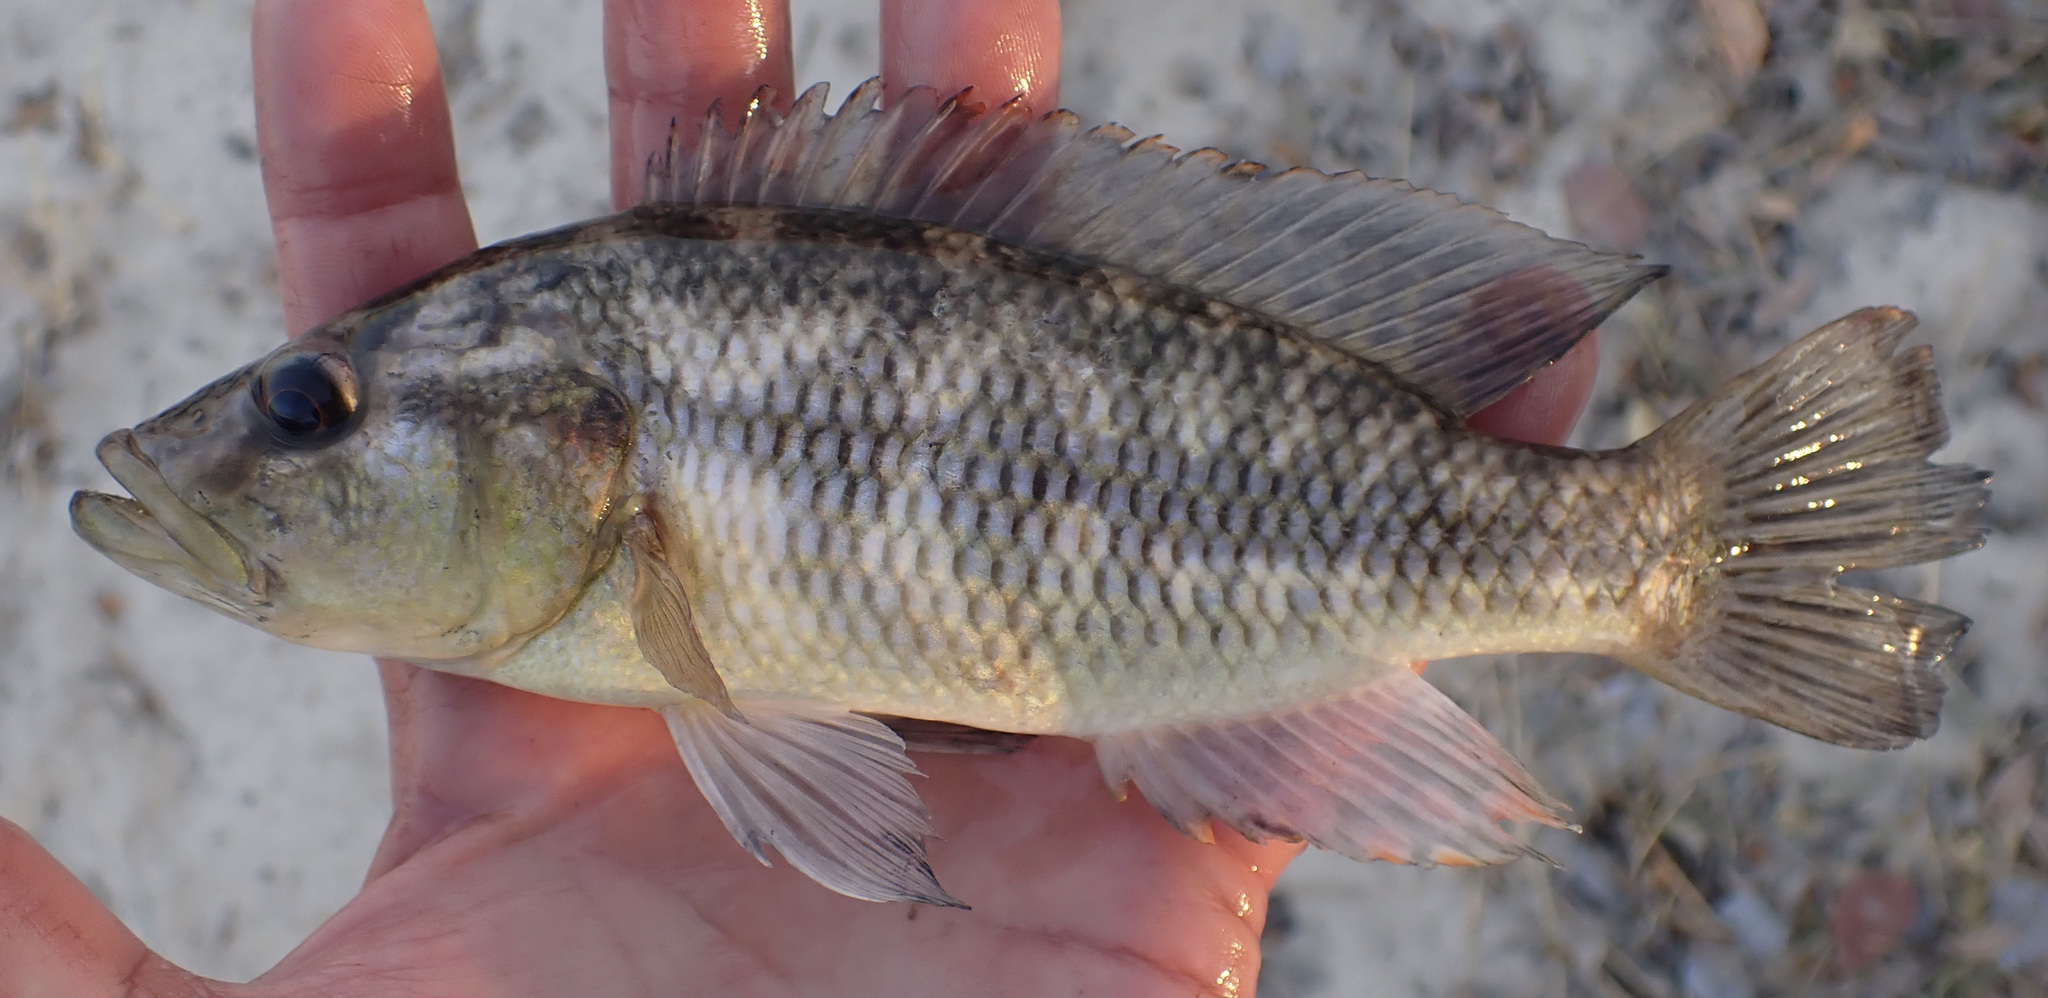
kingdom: Animalia
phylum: Chordata
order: Perciformes
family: Cichlidae
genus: Serranochromis
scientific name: Serranochromis macrocephalus
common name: Purpleface largemouth
